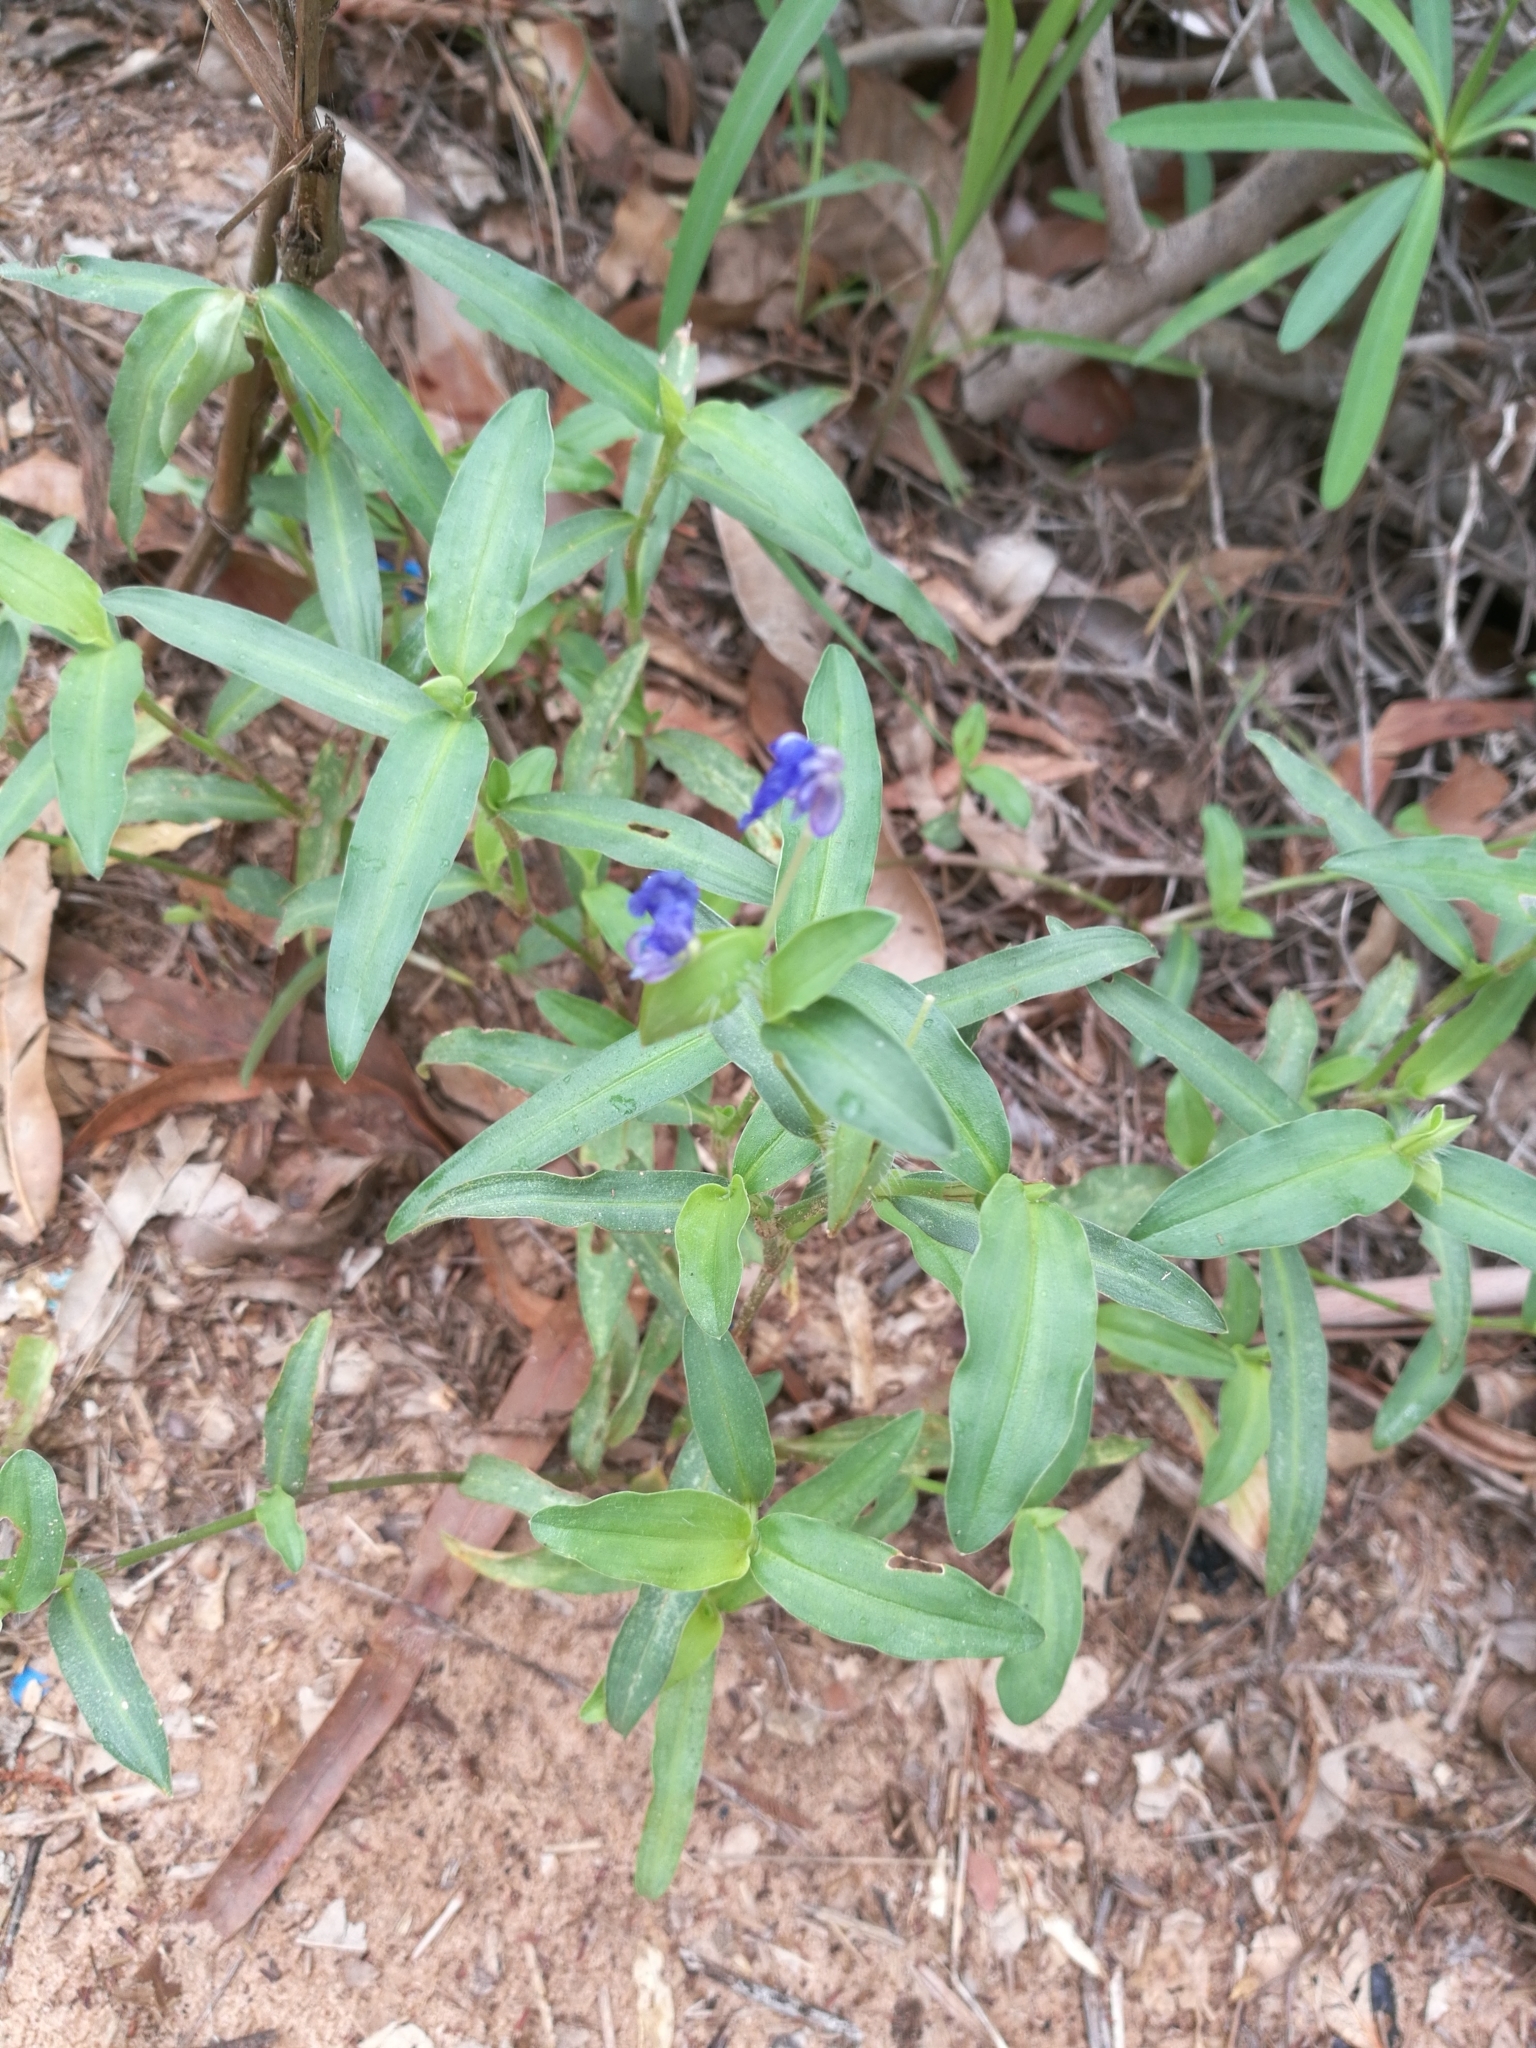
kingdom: Plantae
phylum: Tracheophyta
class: Liliopsida
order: Commelinales
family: Commelinaceae
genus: Commelina
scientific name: Commelina forskaolii
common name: Rat's ear
